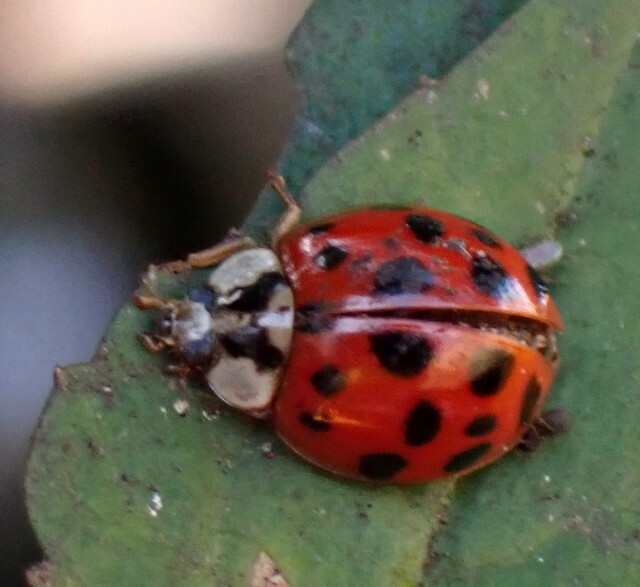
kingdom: Animalia
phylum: Arthropoda
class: Insecta
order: Coleoptera
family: Coccinellidae
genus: Harmonia
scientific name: Harmonia axyridis
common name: Harlequin ladybird
